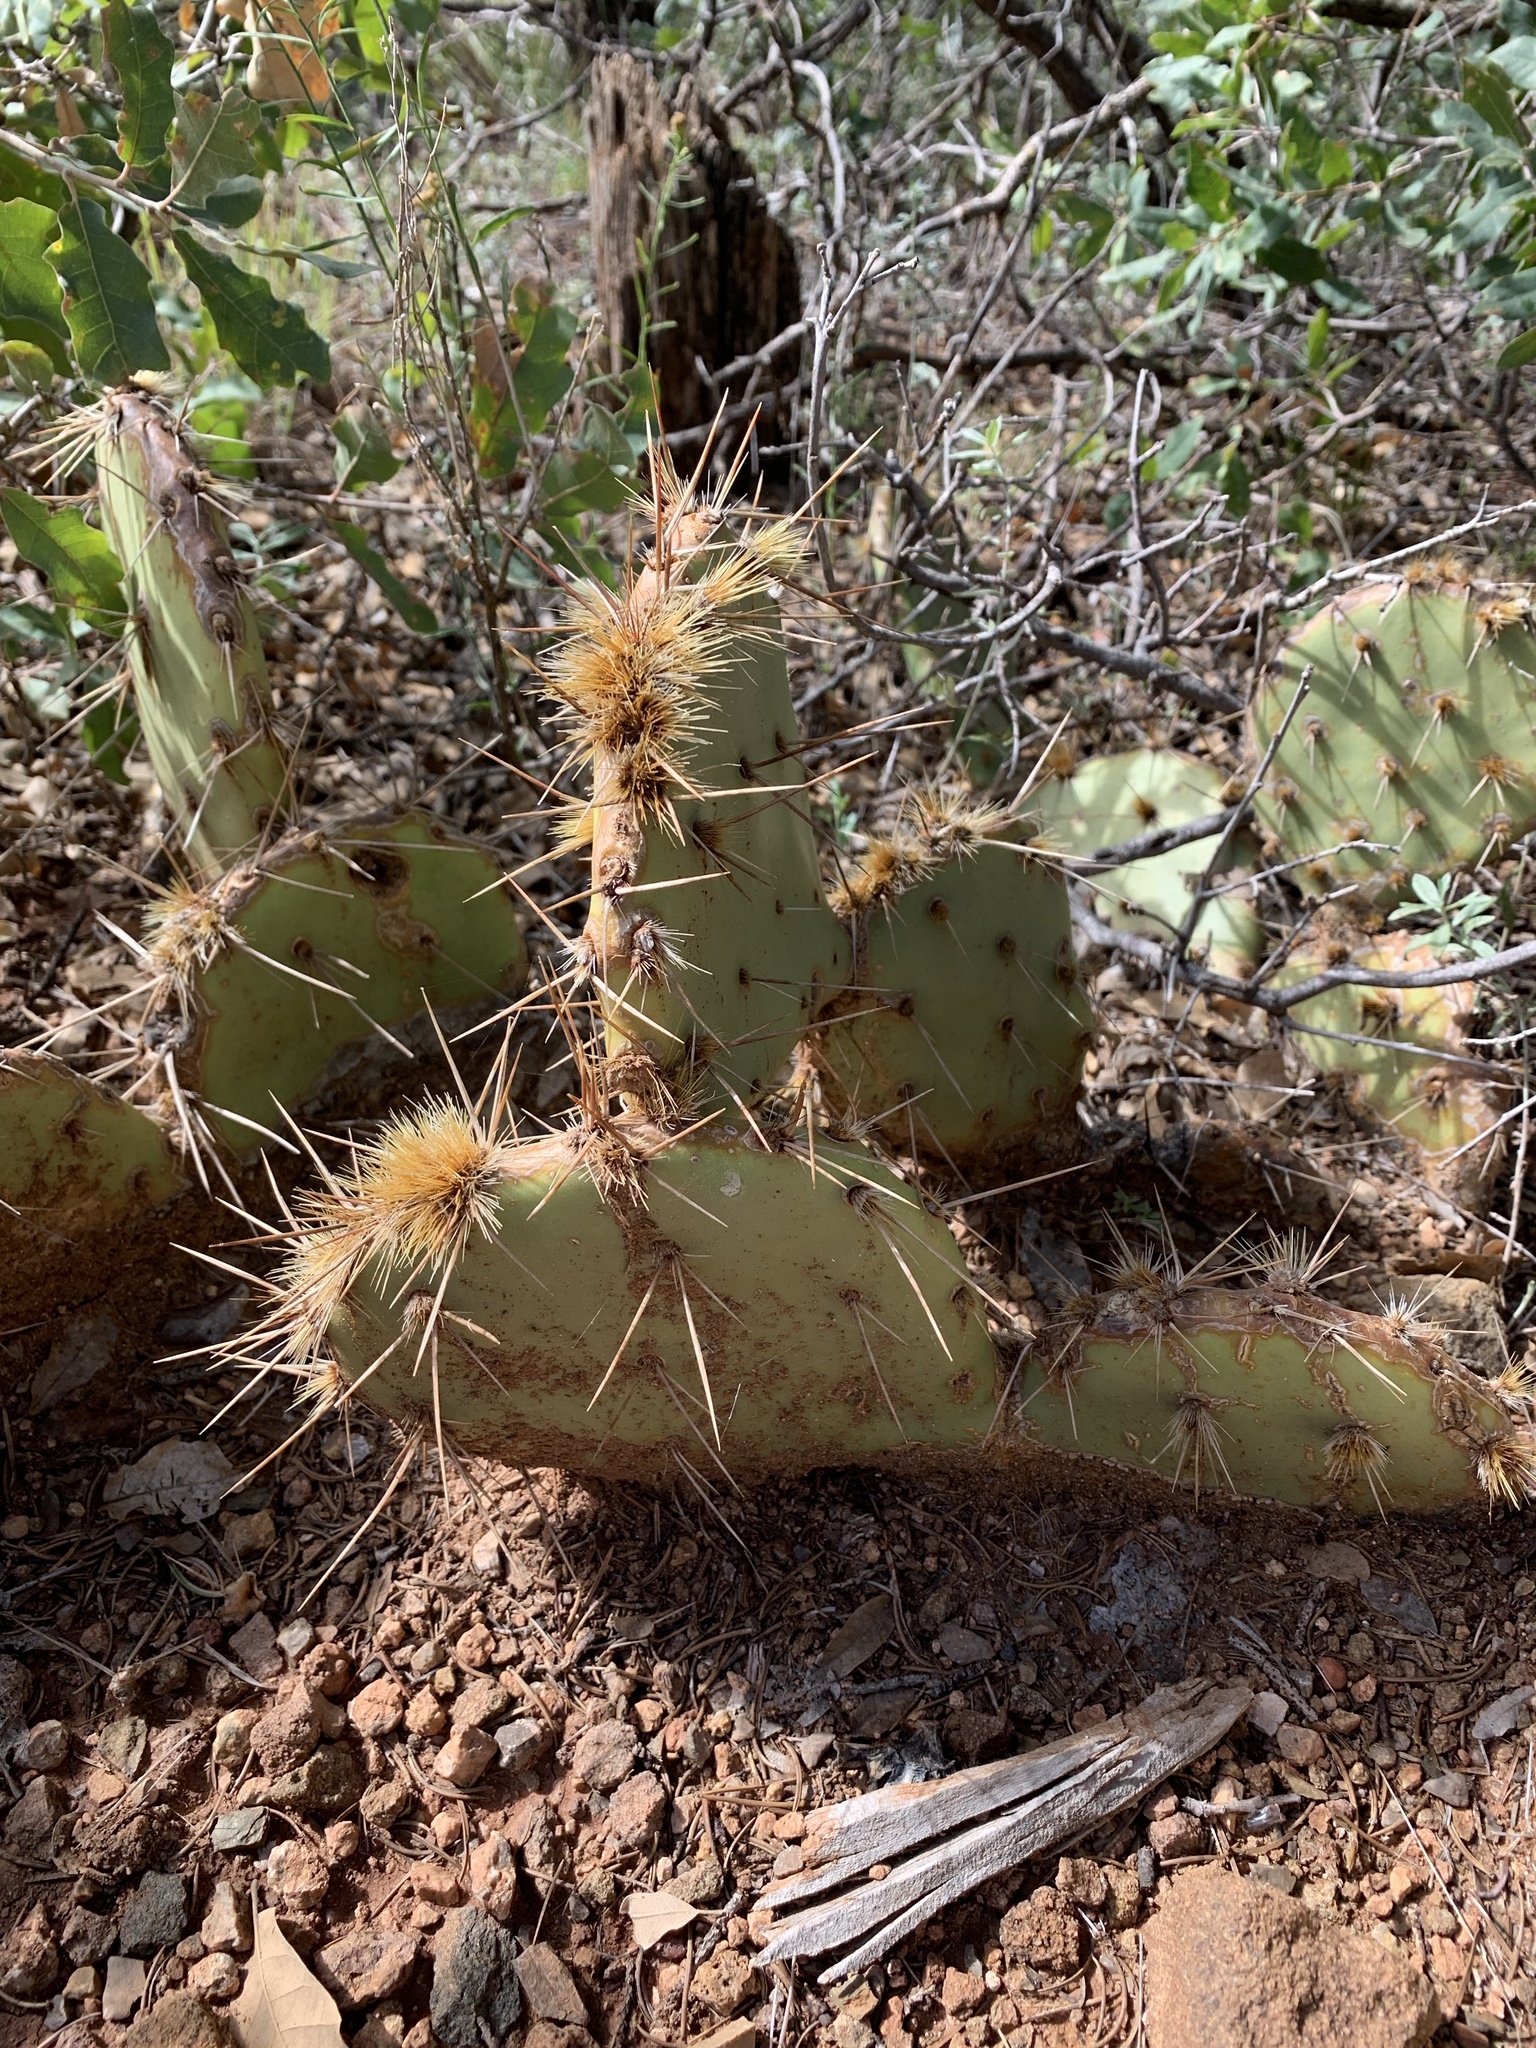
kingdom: Plantae
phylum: Tracheophyta
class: Magnoliopsida
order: Caryophyllales
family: Cactaceae
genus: Opuntia
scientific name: Opuntia phaeacantha
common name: New mexico prickly-pear
